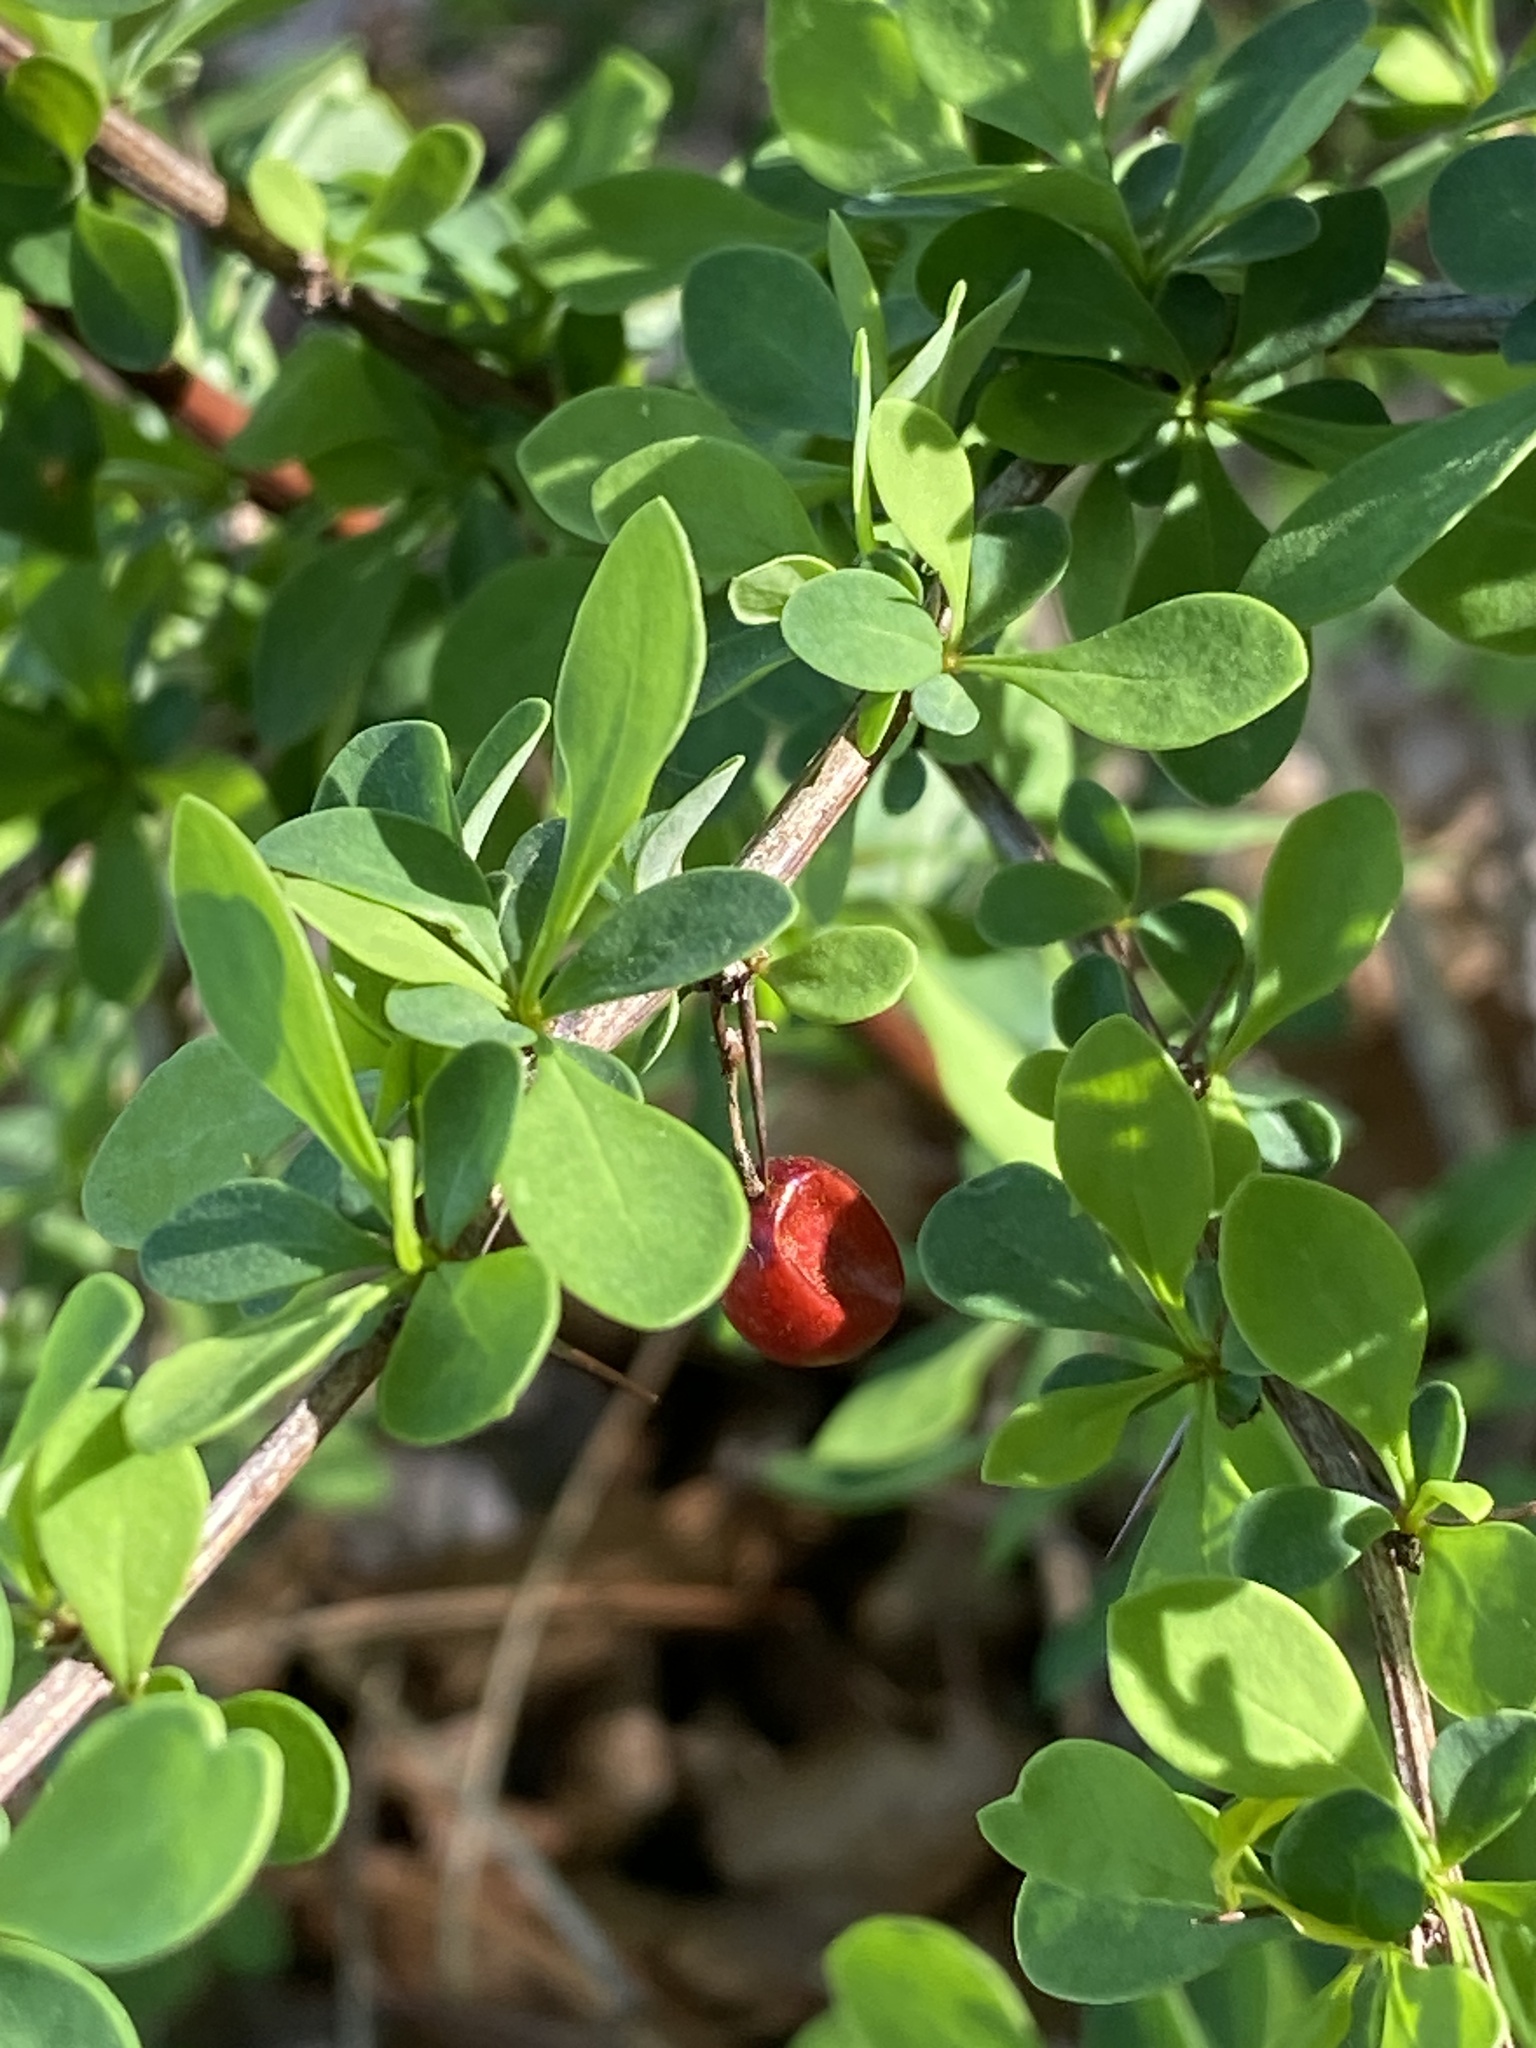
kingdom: Plantae
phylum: Tracheophyta
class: Magnoliopsida
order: Ranunculales
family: Berberidaceae
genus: Berberis
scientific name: Berberis thunbergii
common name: Japanese barberry
